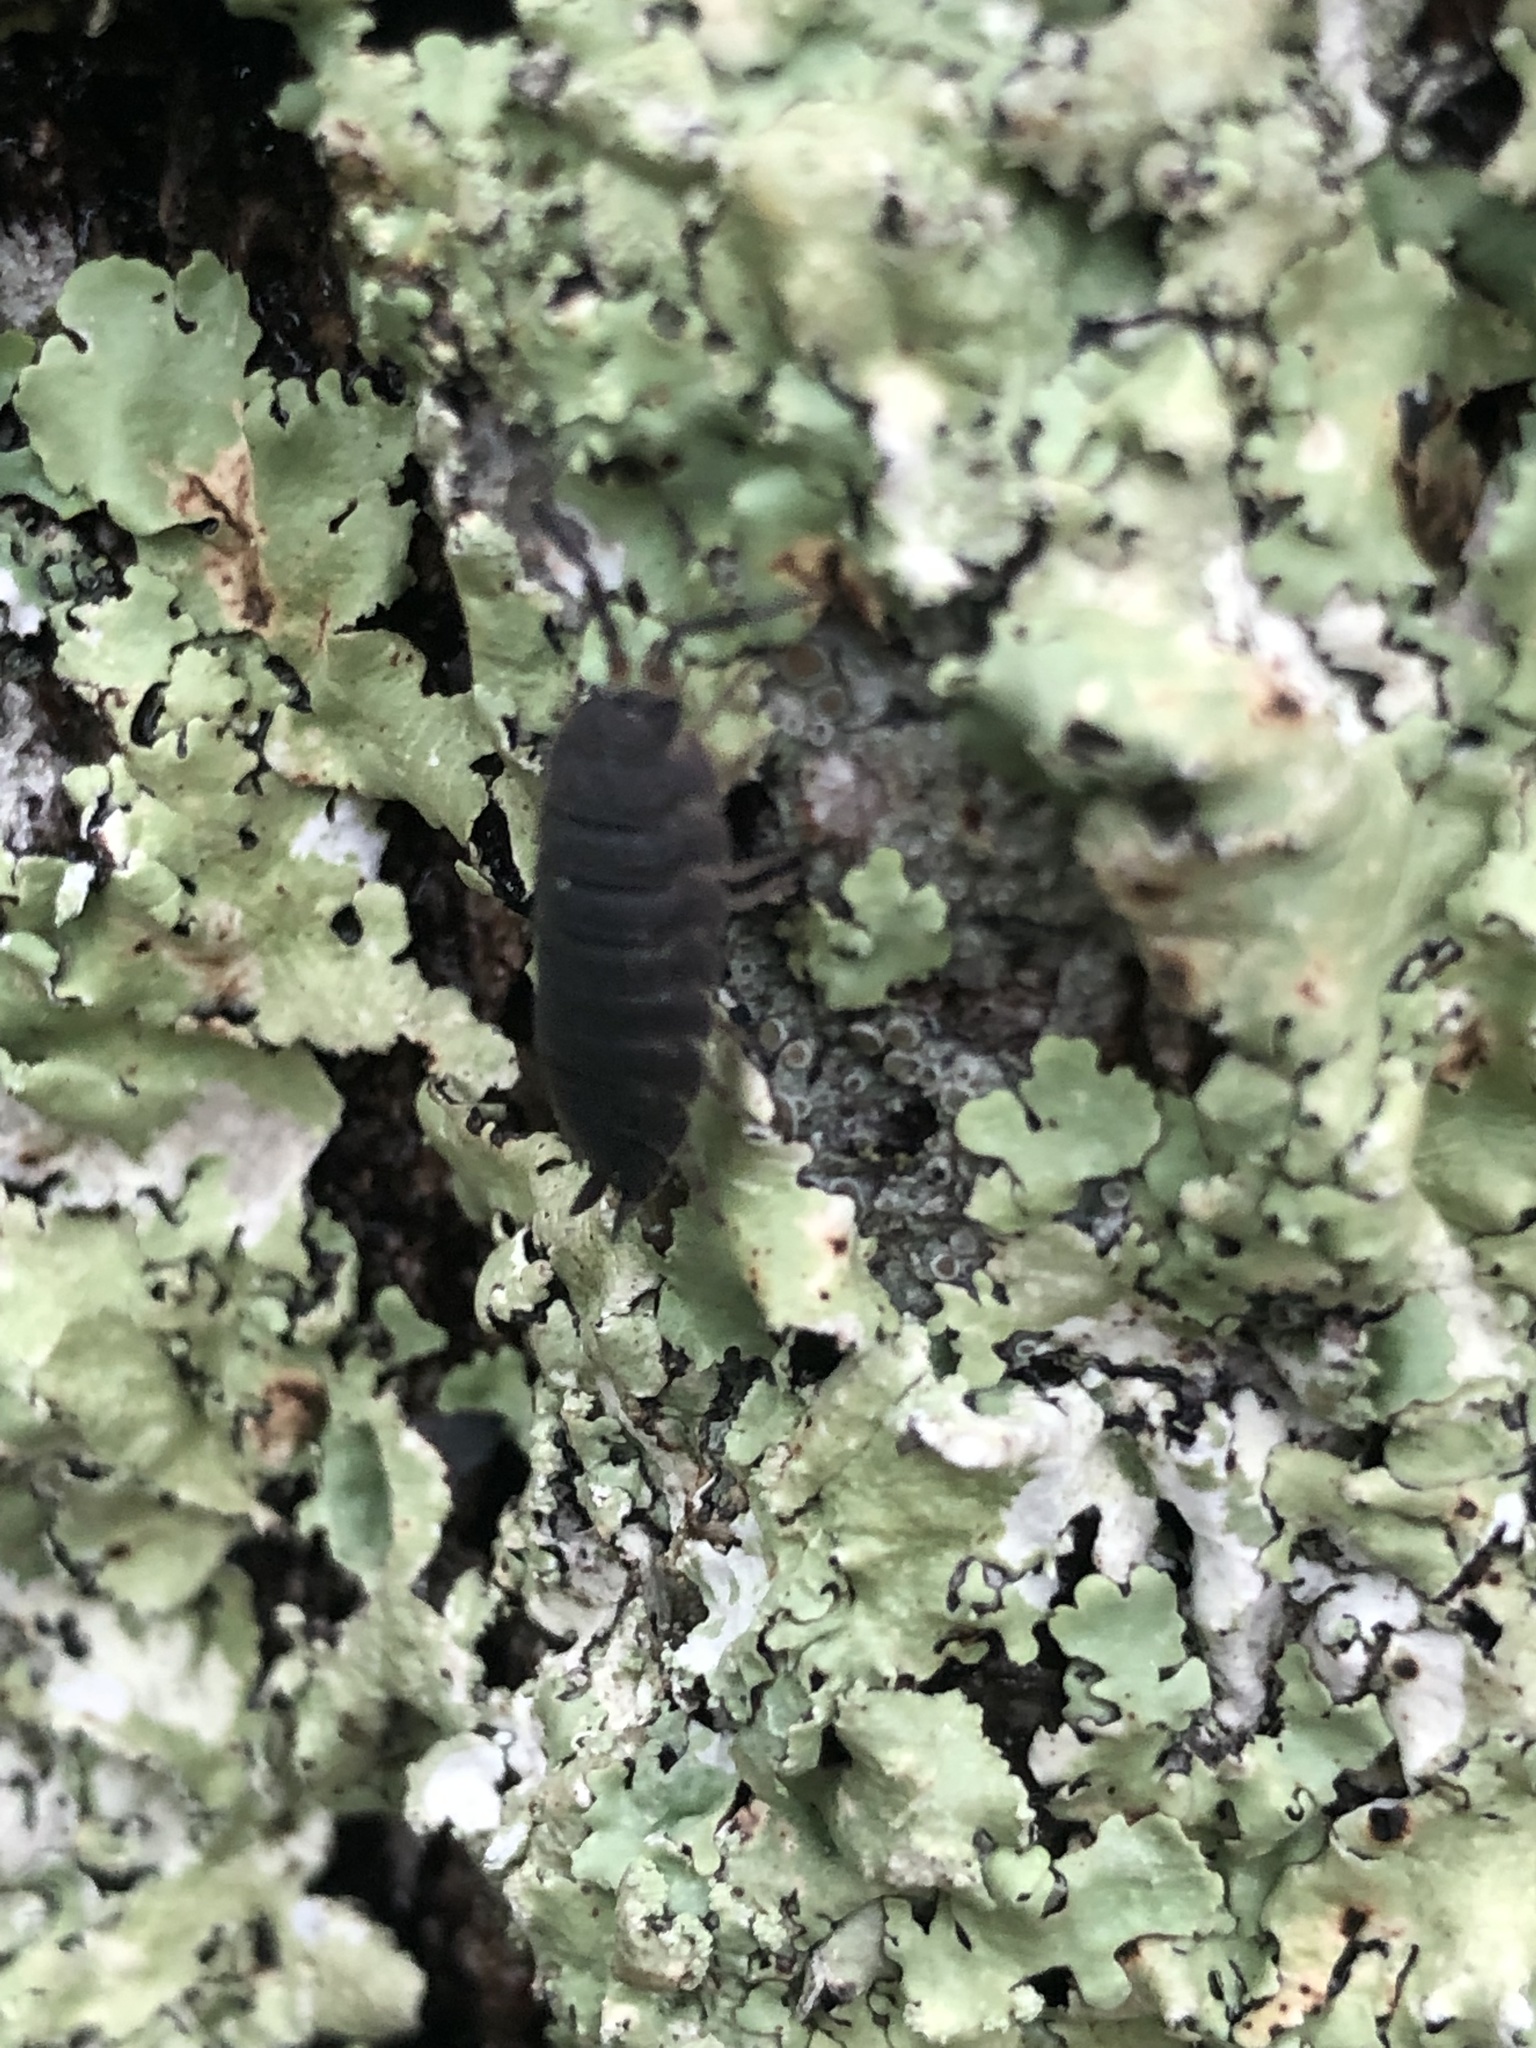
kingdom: Animalia
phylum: Arthropoda
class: Malacostraca
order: Isopoda
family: Porcellionidae
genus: Porcellio
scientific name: Porcellio scaber
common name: Common rough woodlouse
